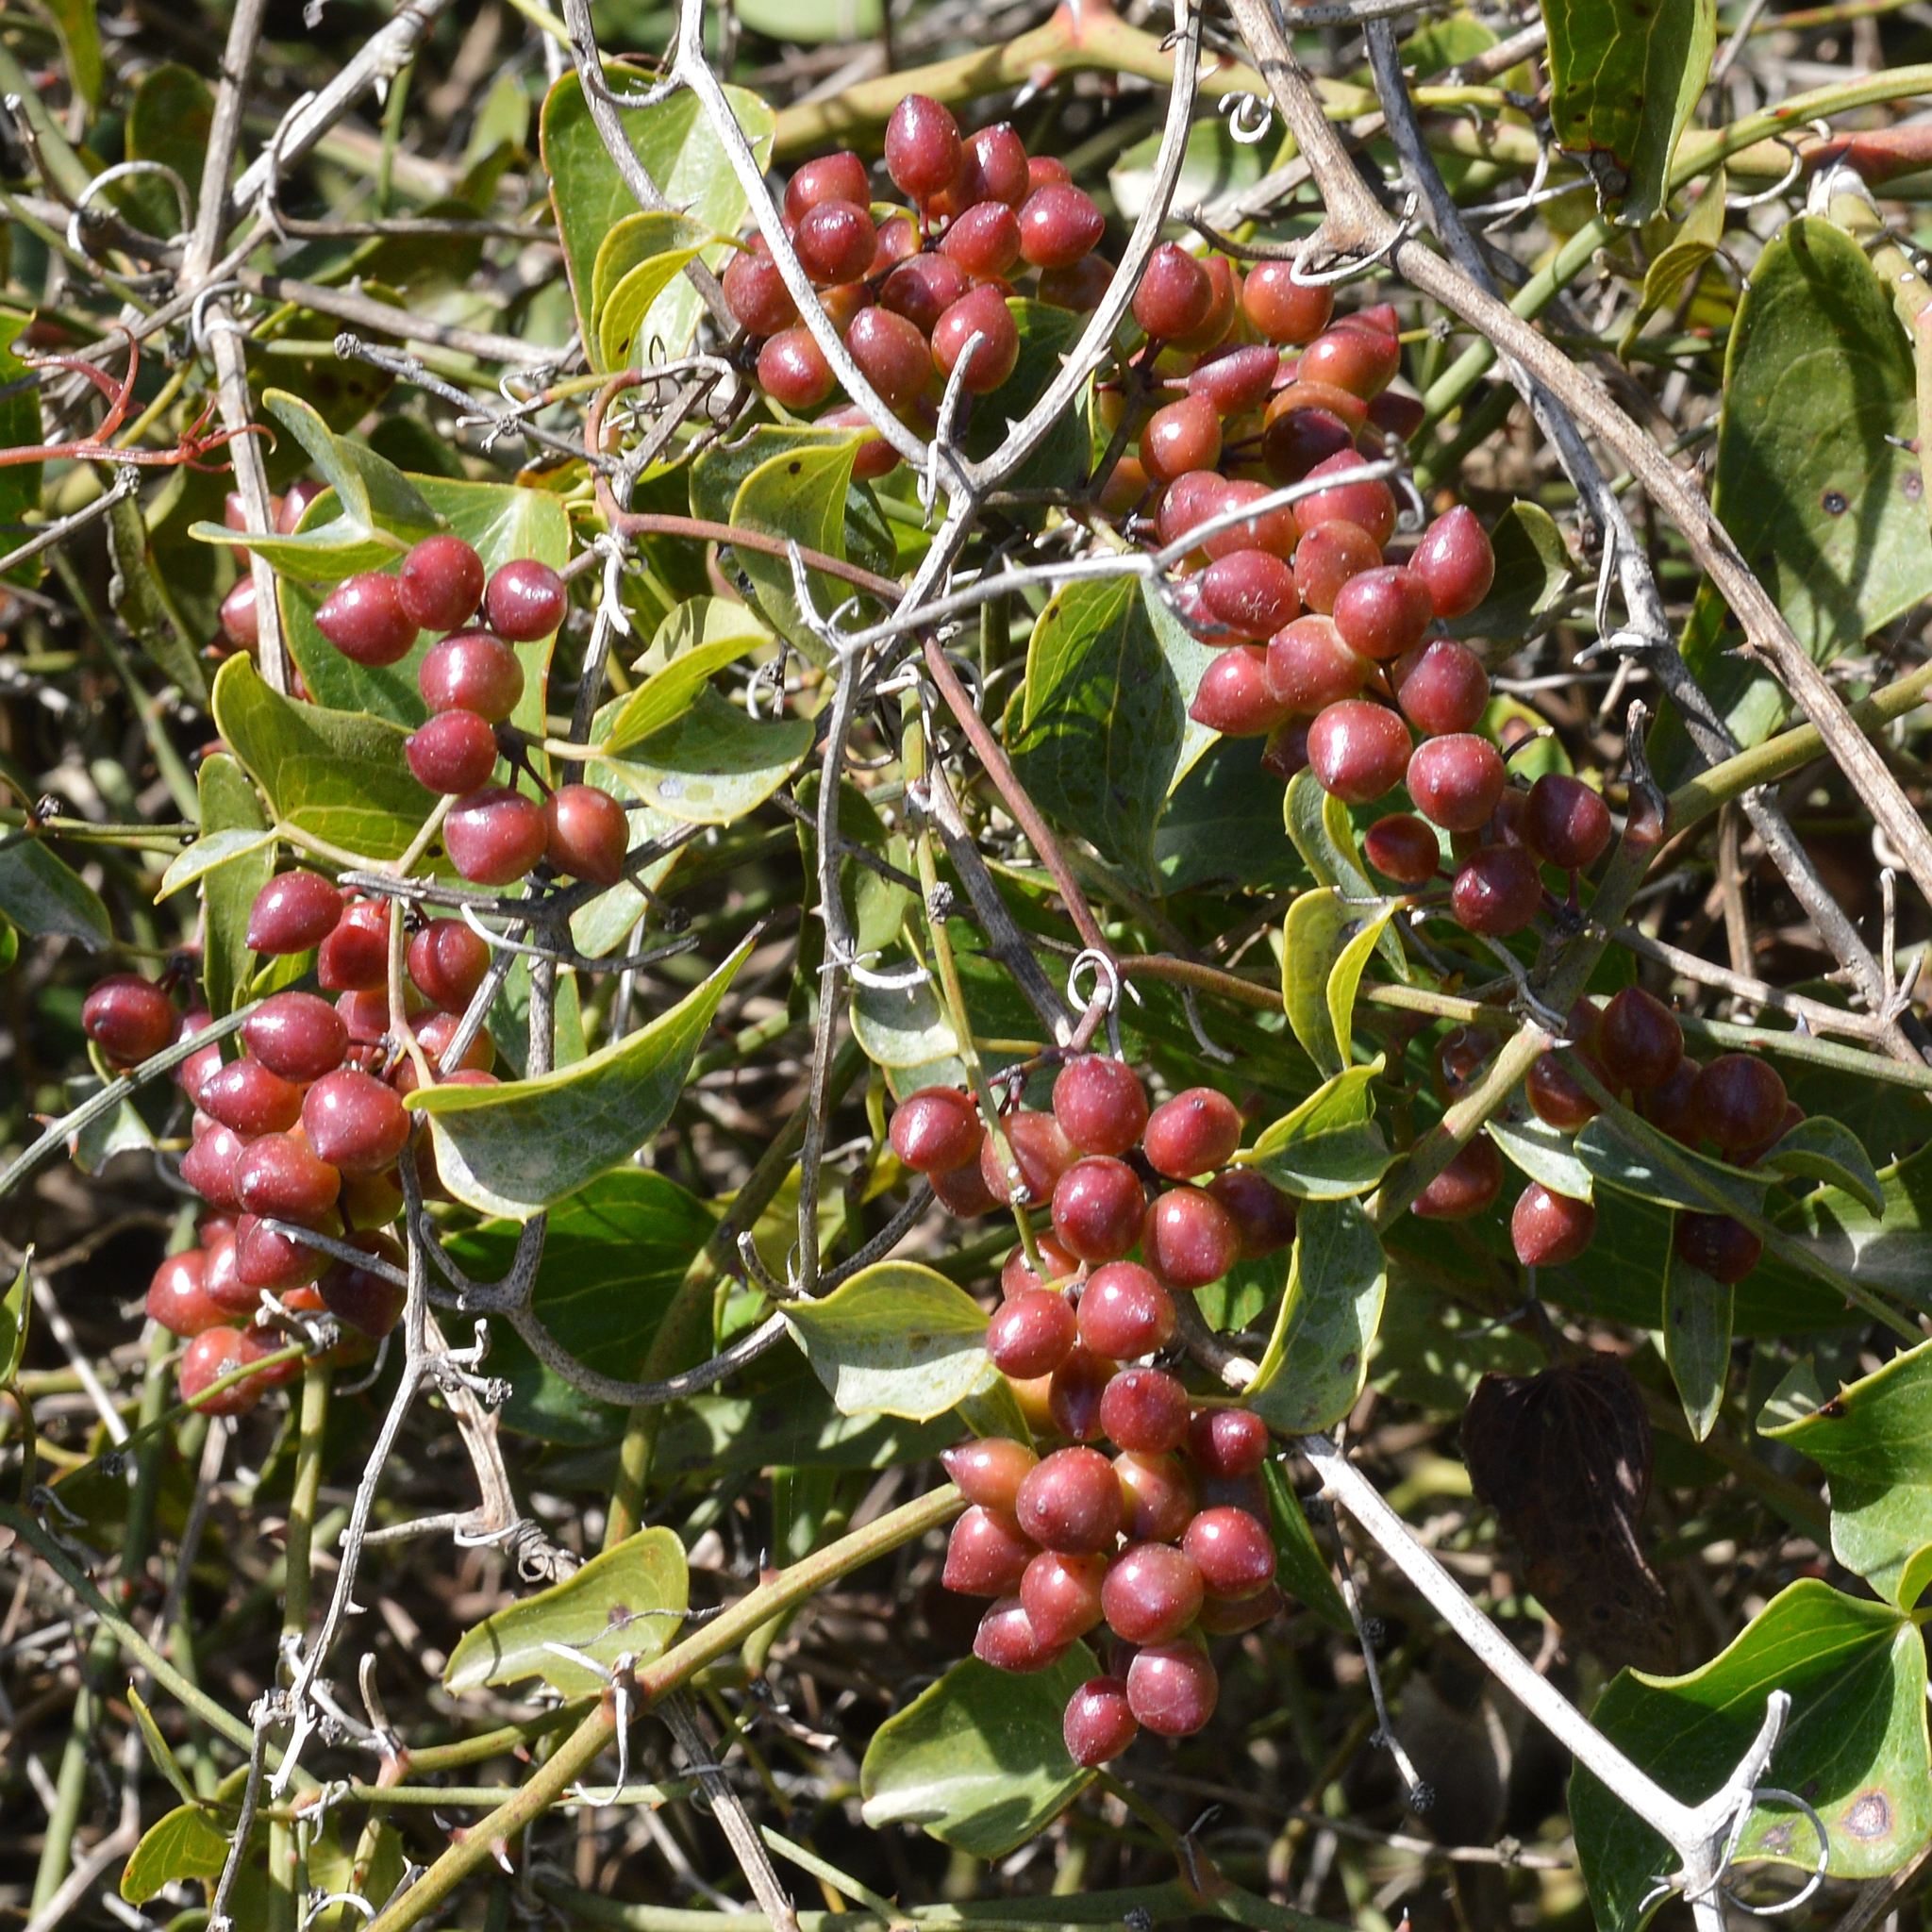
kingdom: Plantae
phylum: Tracheophyta
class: Liliopsida
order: Liliales
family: Smilacaceae
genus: Smilax
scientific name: Smilax aspera
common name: Common smilax
